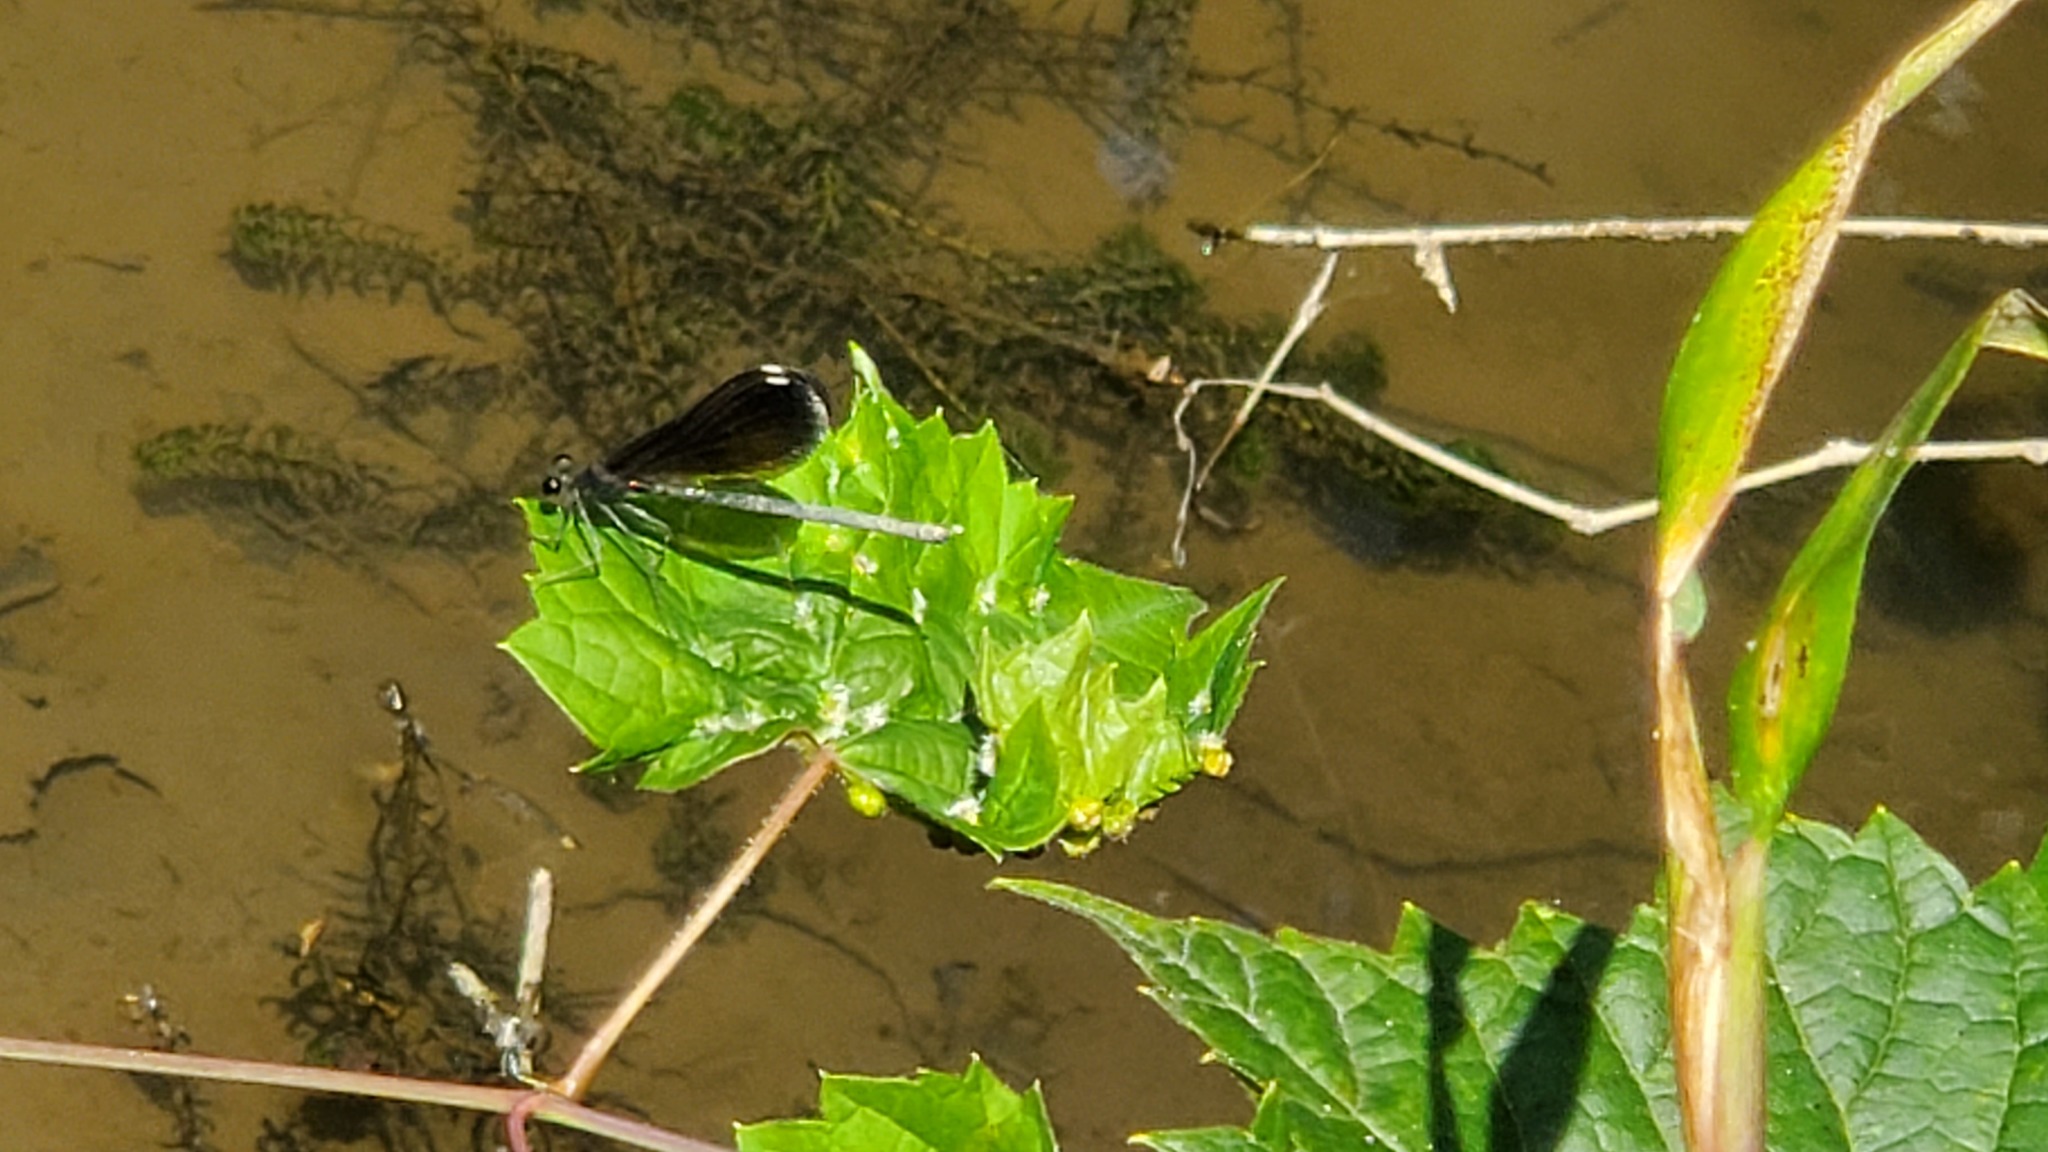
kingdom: Animalia
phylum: Arthropoda
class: Insecta
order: Odonata
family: Calopterygidae
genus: Calopteryx
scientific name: Calopteryx maculata
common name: Ebony jewelwing
